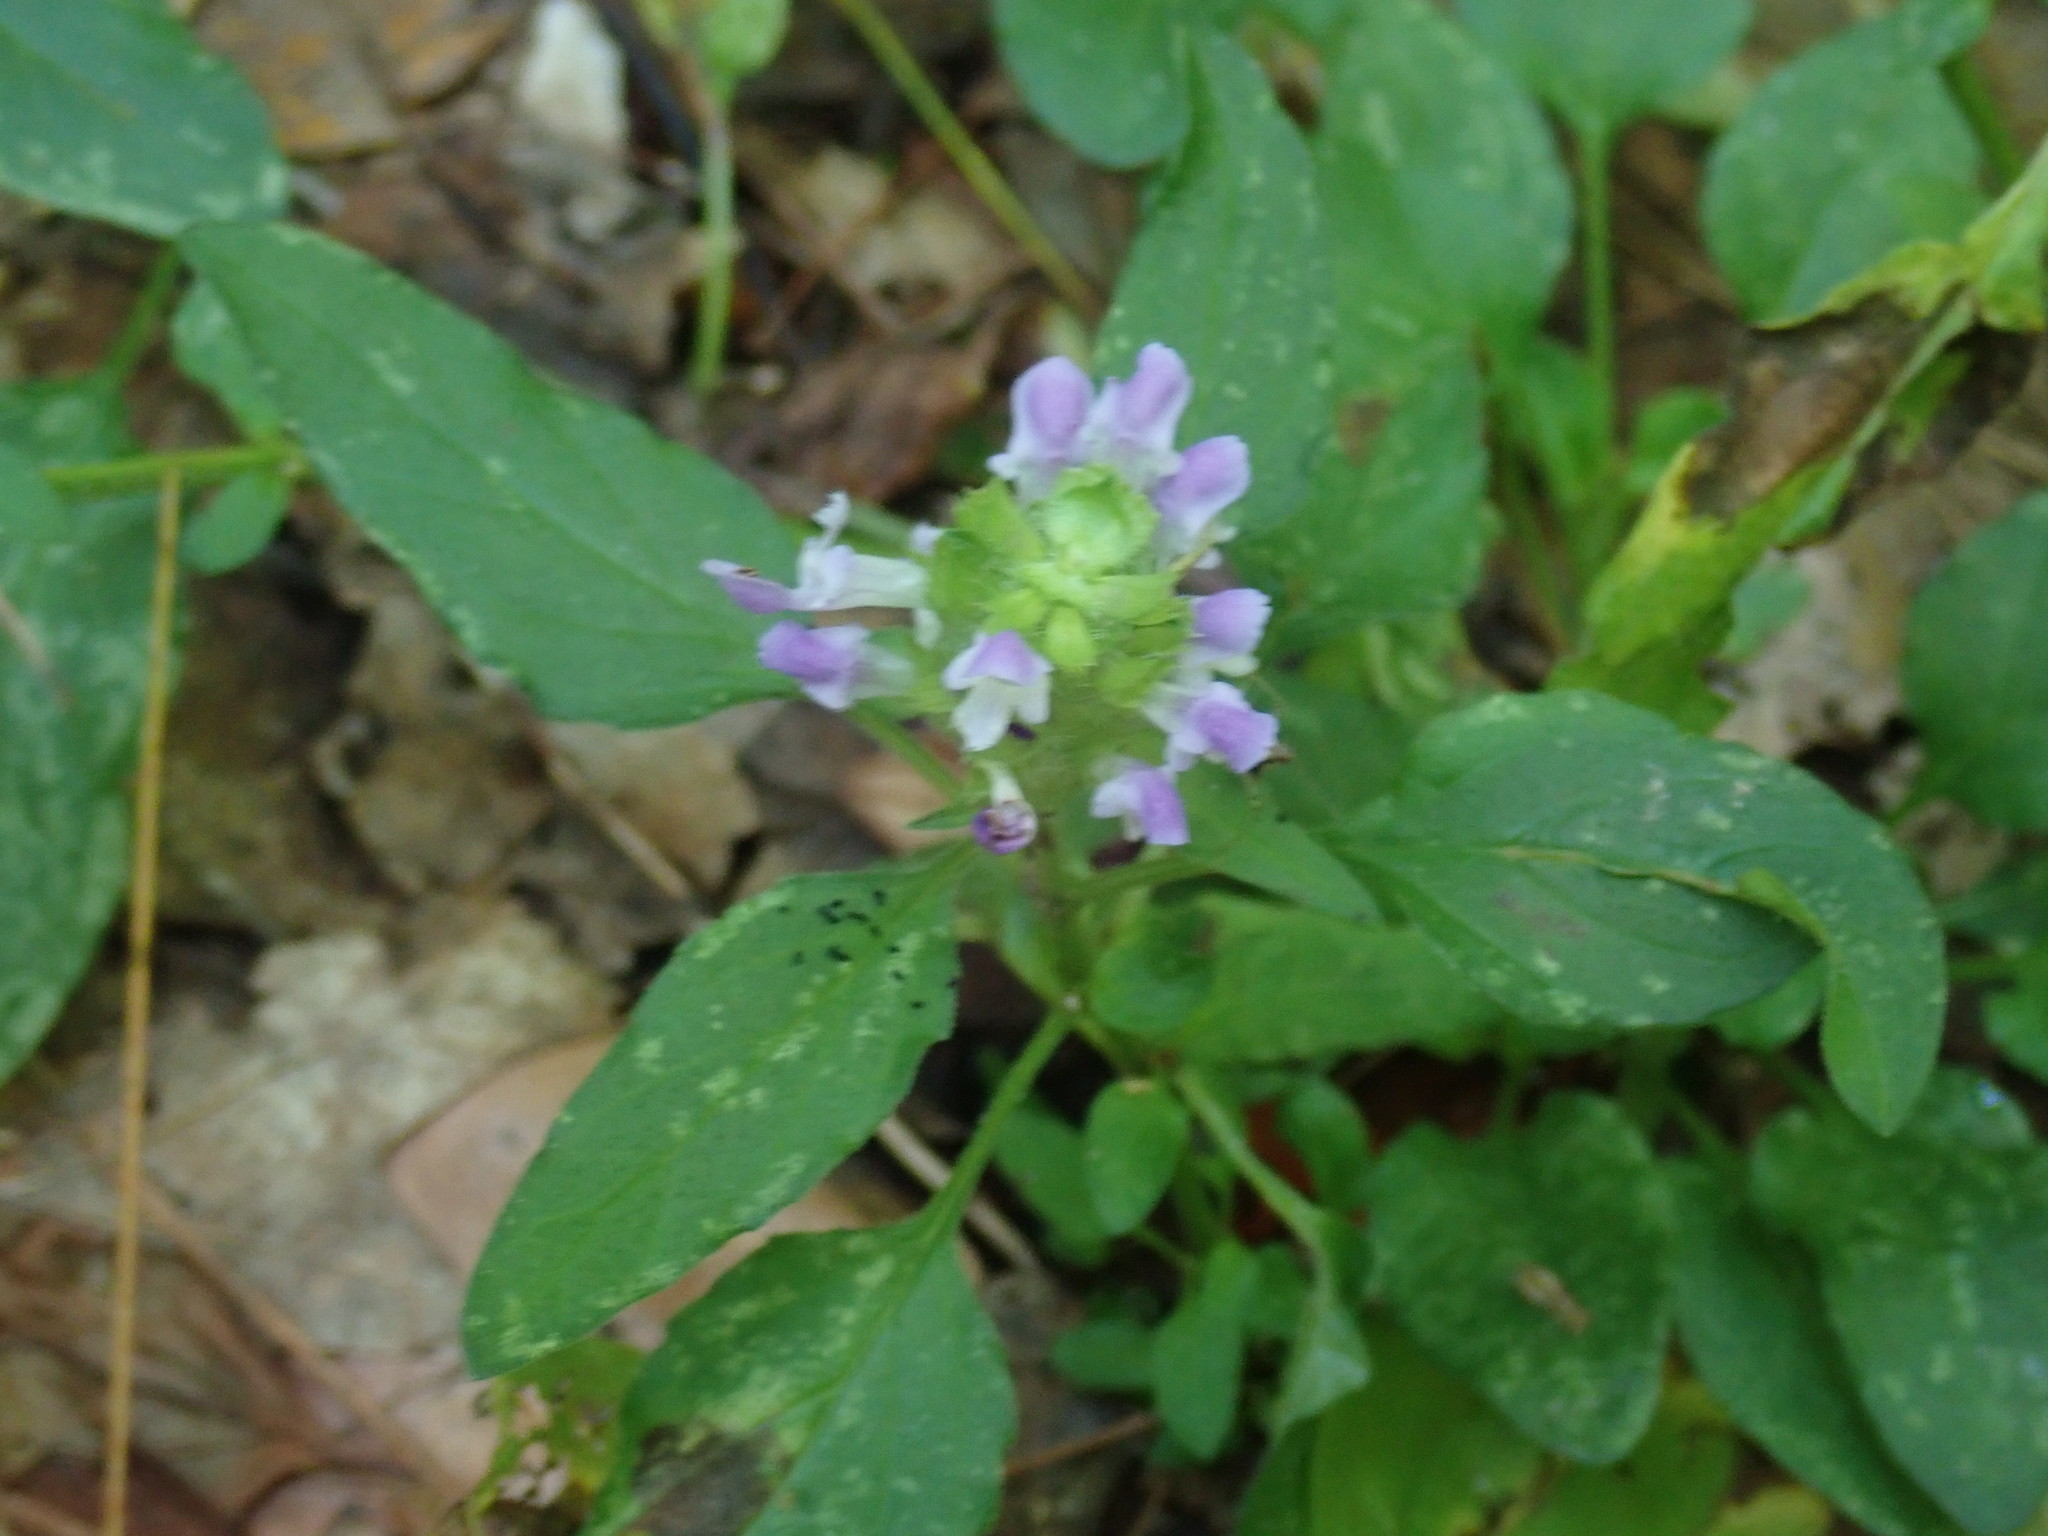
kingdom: Plantae
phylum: Tracheophyta
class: Magnoliopsida
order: Lamiales
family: Lamiaceae
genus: Prunella
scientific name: Prunella vulgaris
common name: Heal-all
